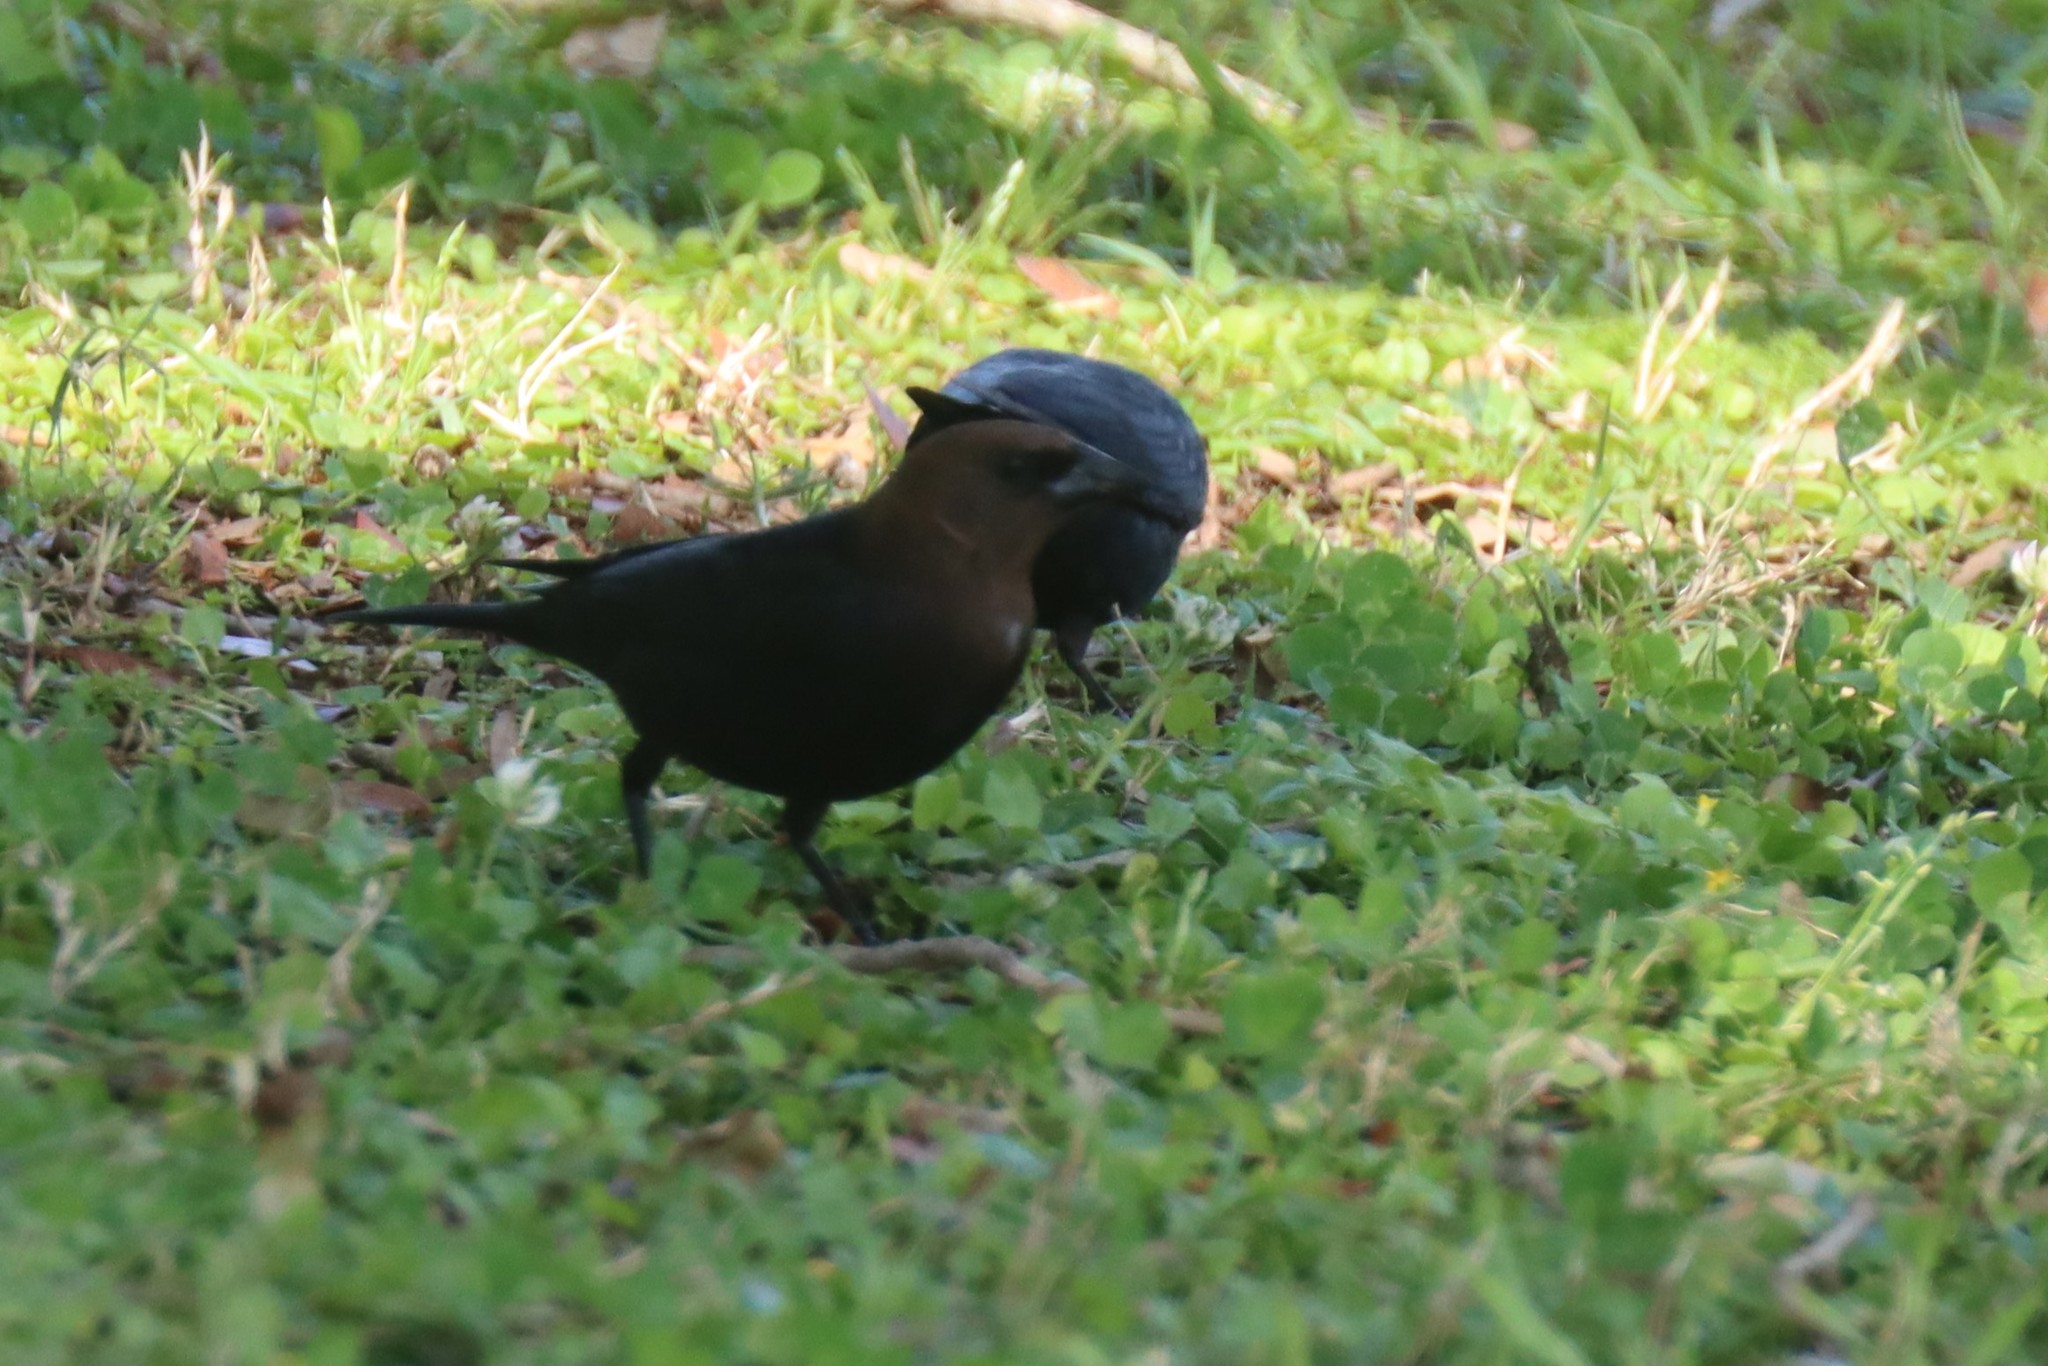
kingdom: Animalia
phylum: Chordata
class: Aves
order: Passeriformes
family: Icteridae
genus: Molothrus
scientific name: Molothrus ater
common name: Brown-headed cowbird
